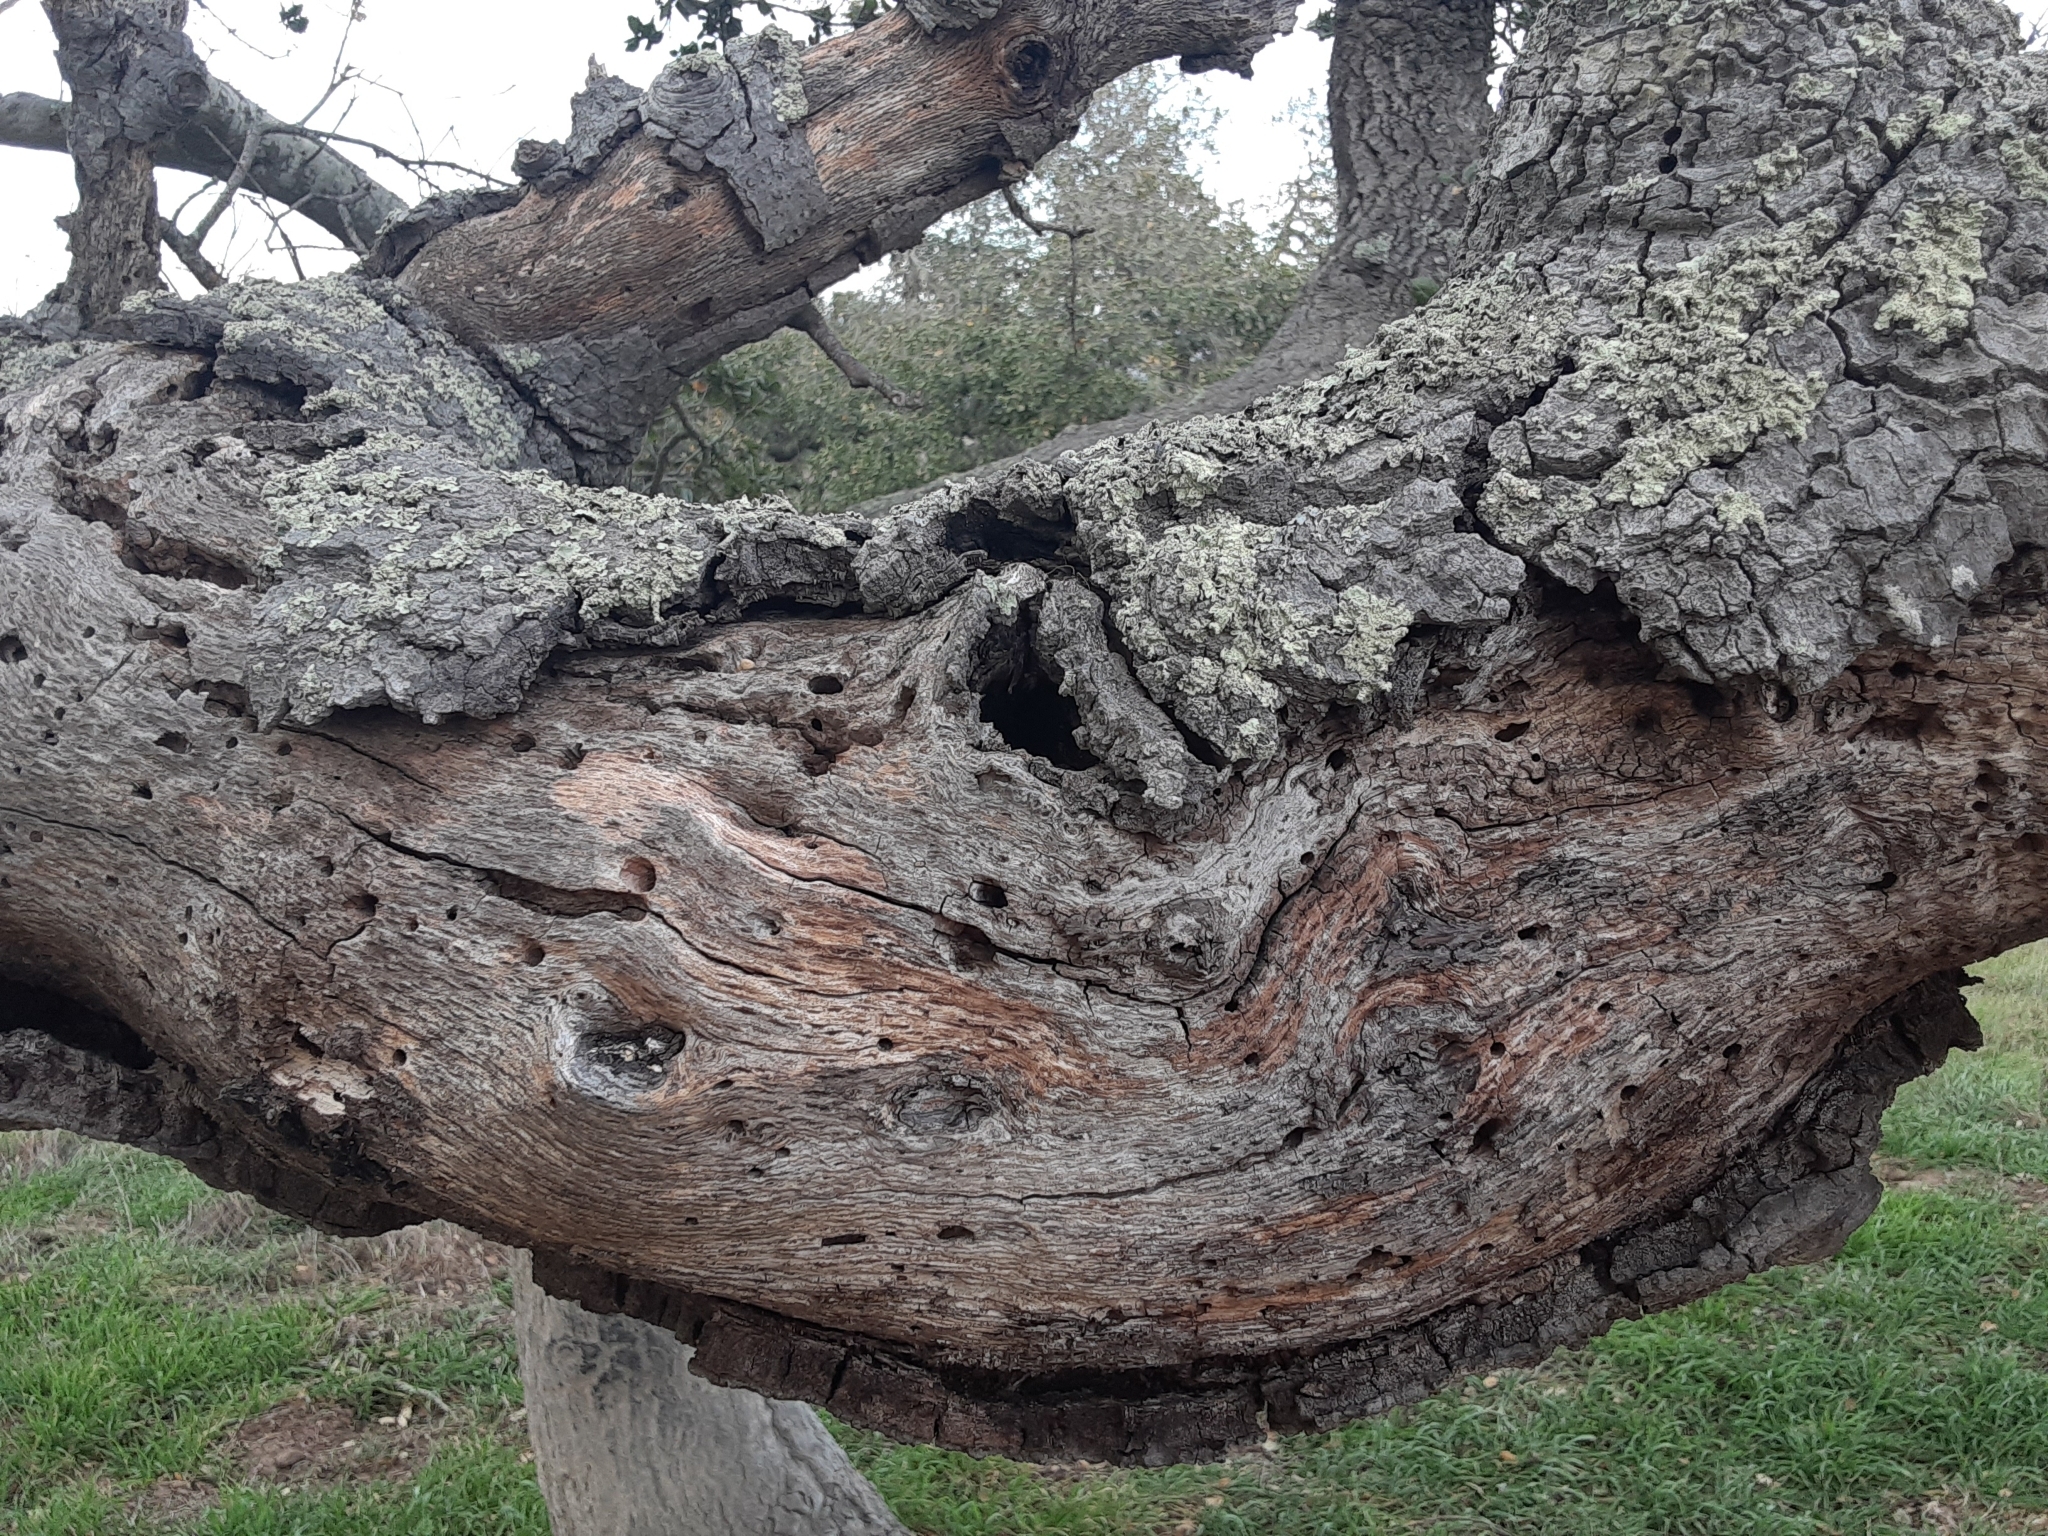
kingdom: Plantae
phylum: Tracheophyta
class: Magnoliopsida
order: Fagales
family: Fagaceae
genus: Quercus
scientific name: Quercus agrifolia
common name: California live oak
